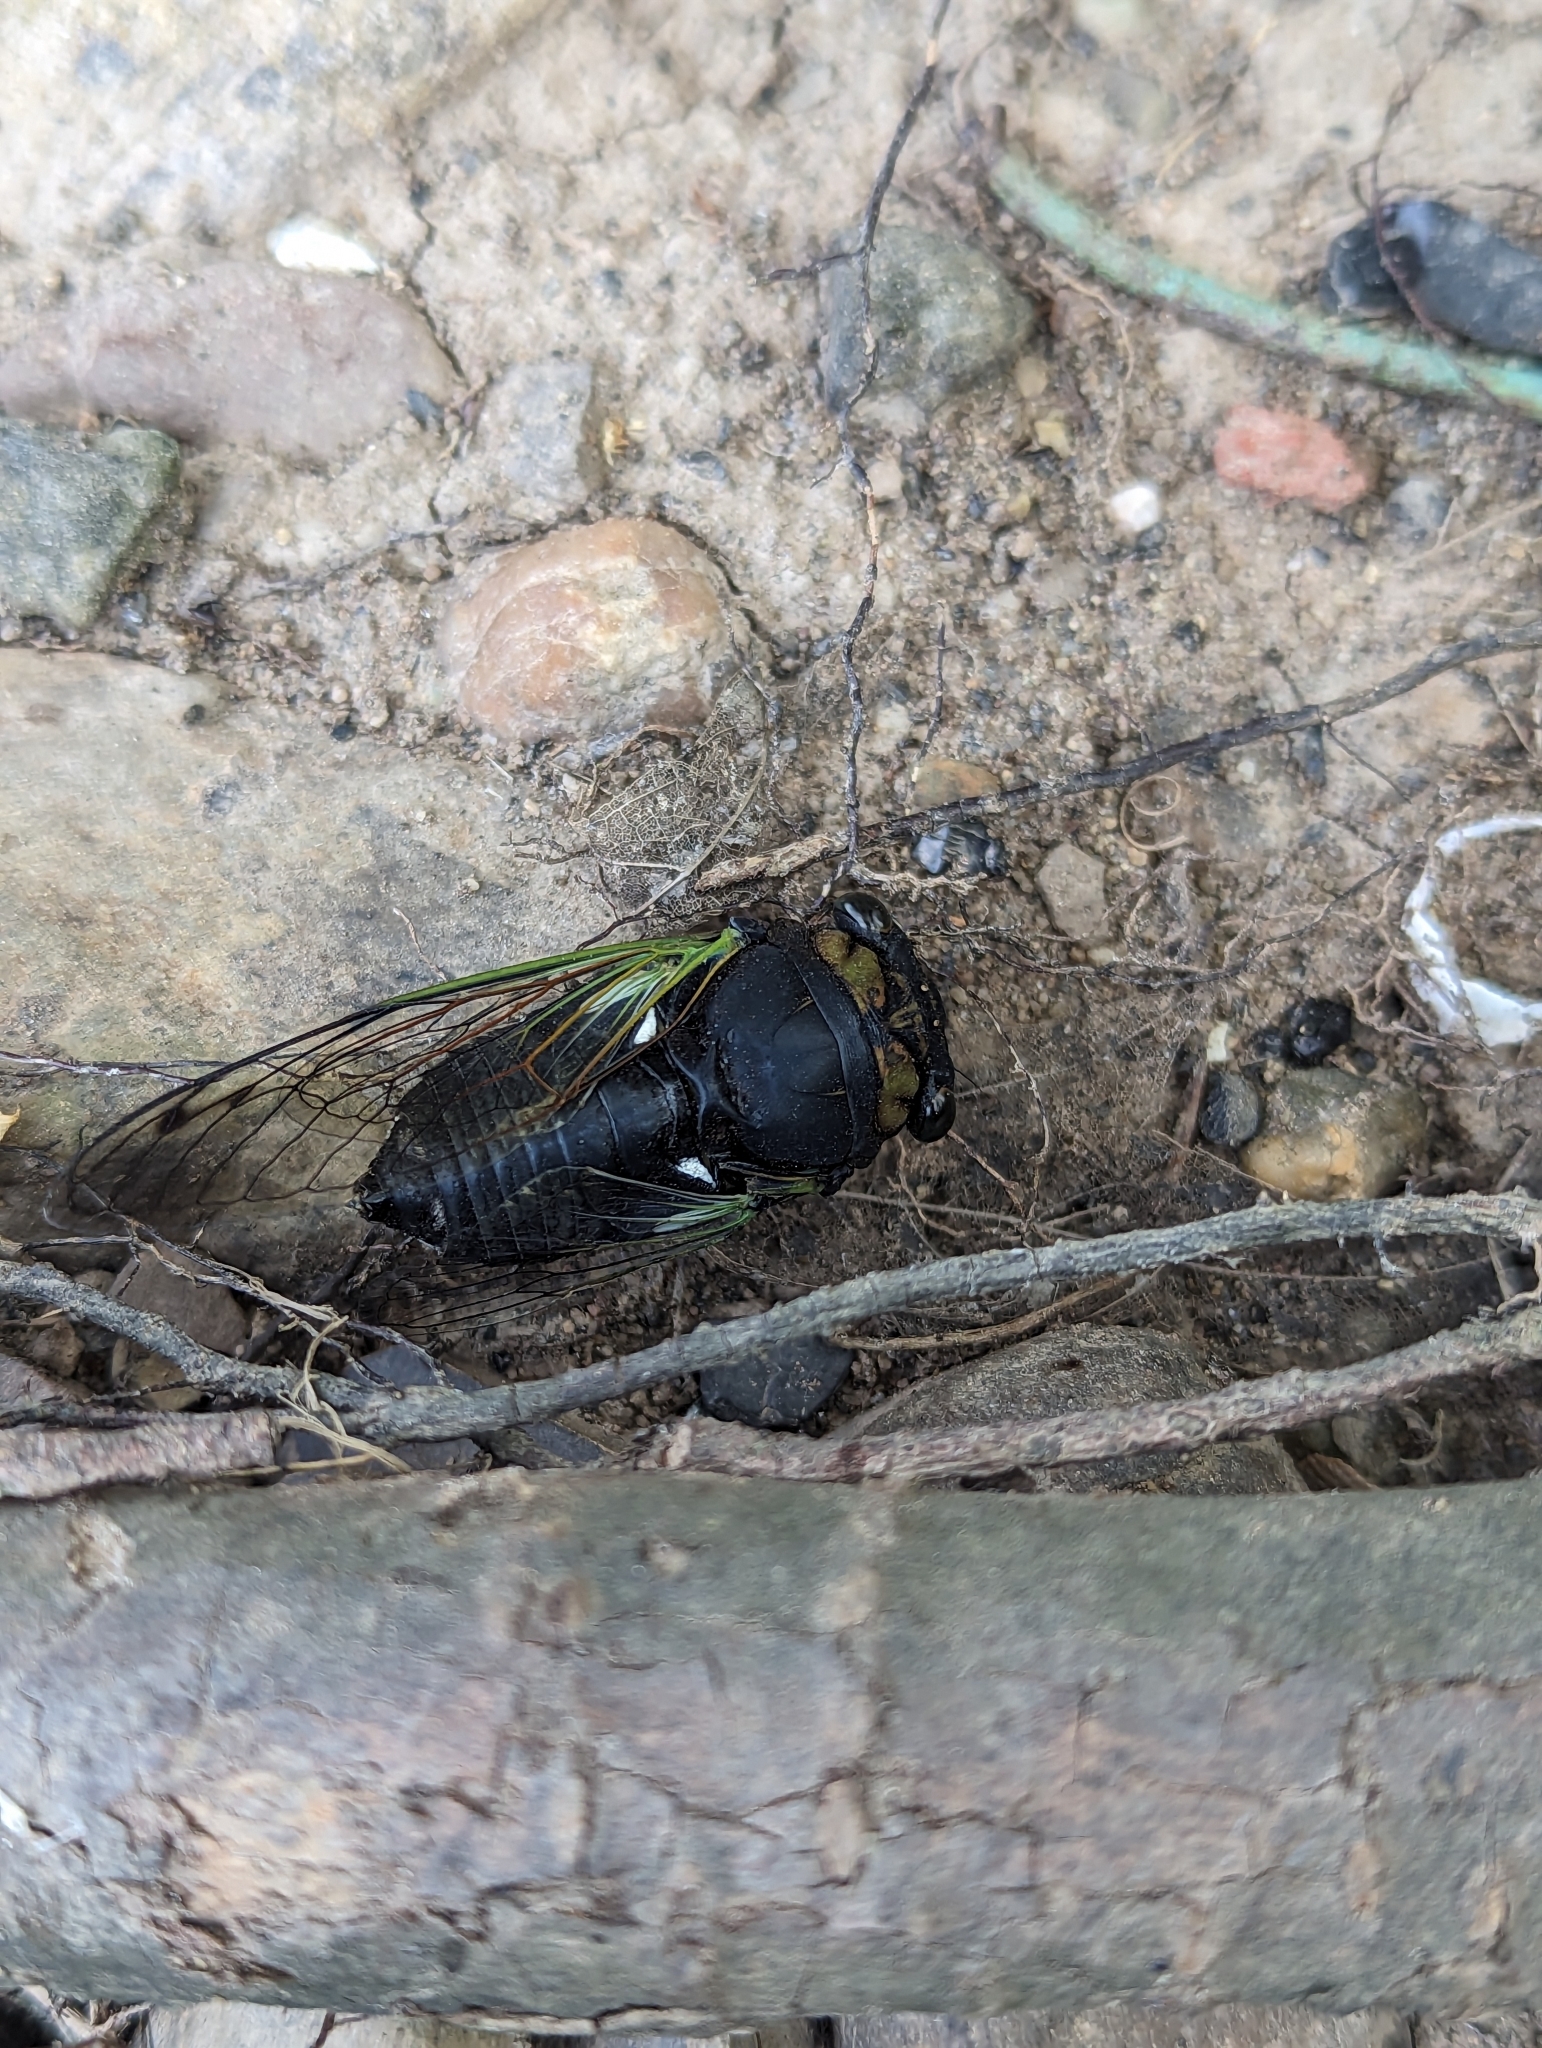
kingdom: Animalia
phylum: Arthropoda
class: Insecta
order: Hemiptera
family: Cicadidae
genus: Neotibicen
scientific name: Neotibicen tibicen
